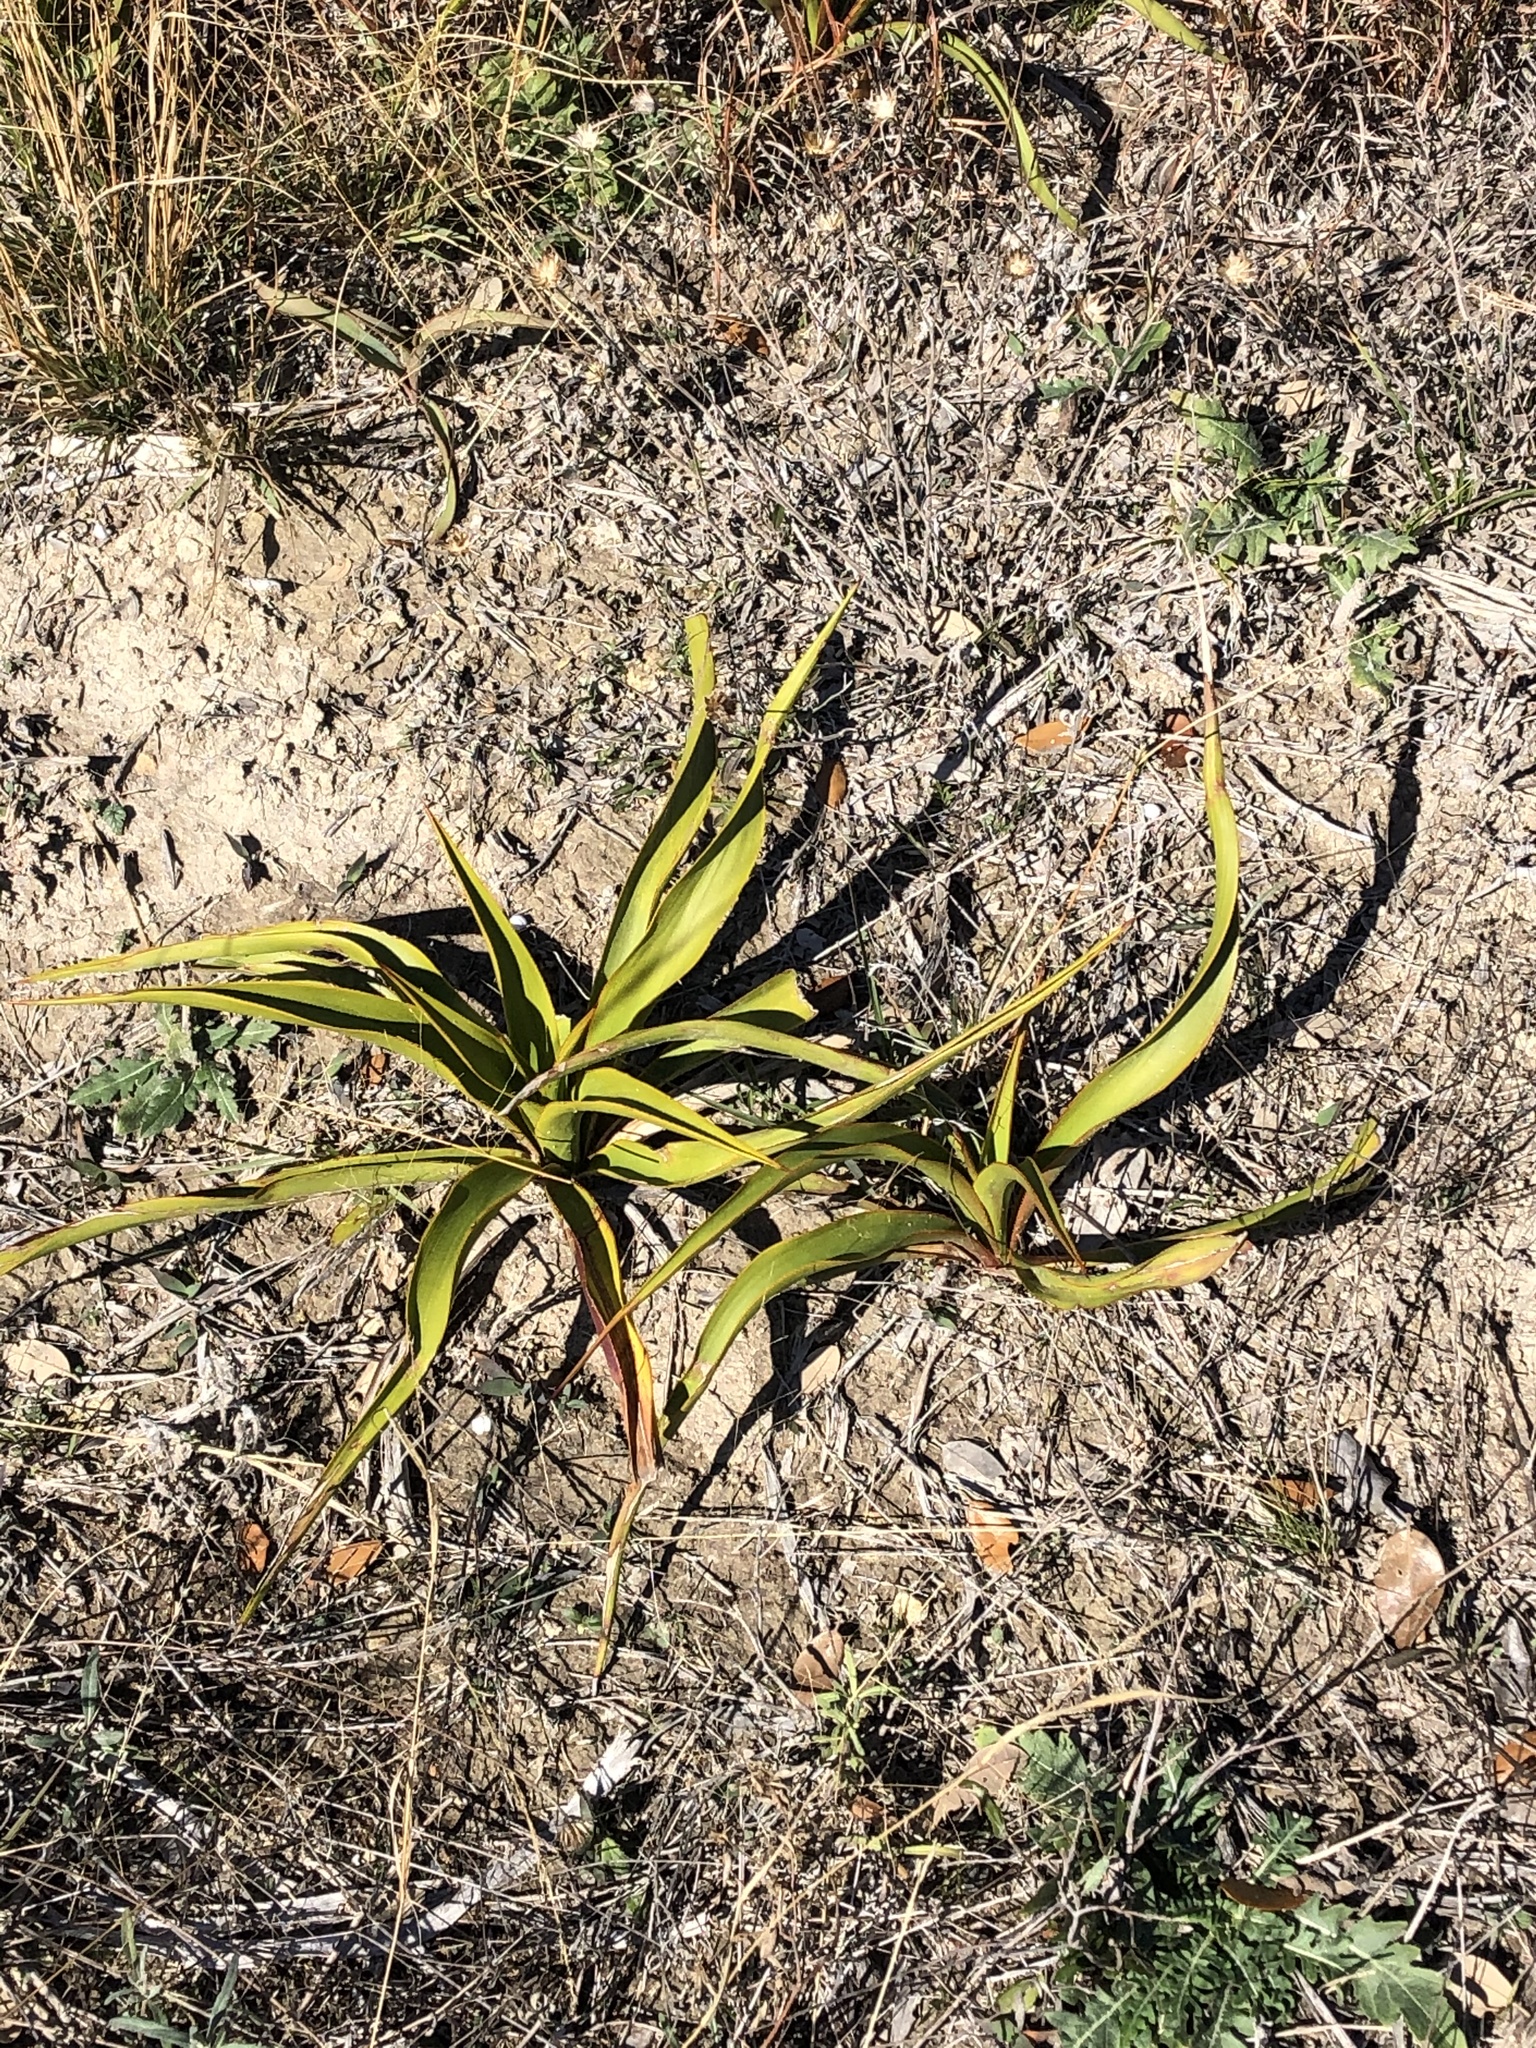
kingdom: Plantae
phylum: Tracheophyta
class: Liliopsida
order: Asparagales
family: Asparagaceae
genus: Yucca
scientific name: Yucca rupicola
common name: Twisted-leaf spanish-dagger
